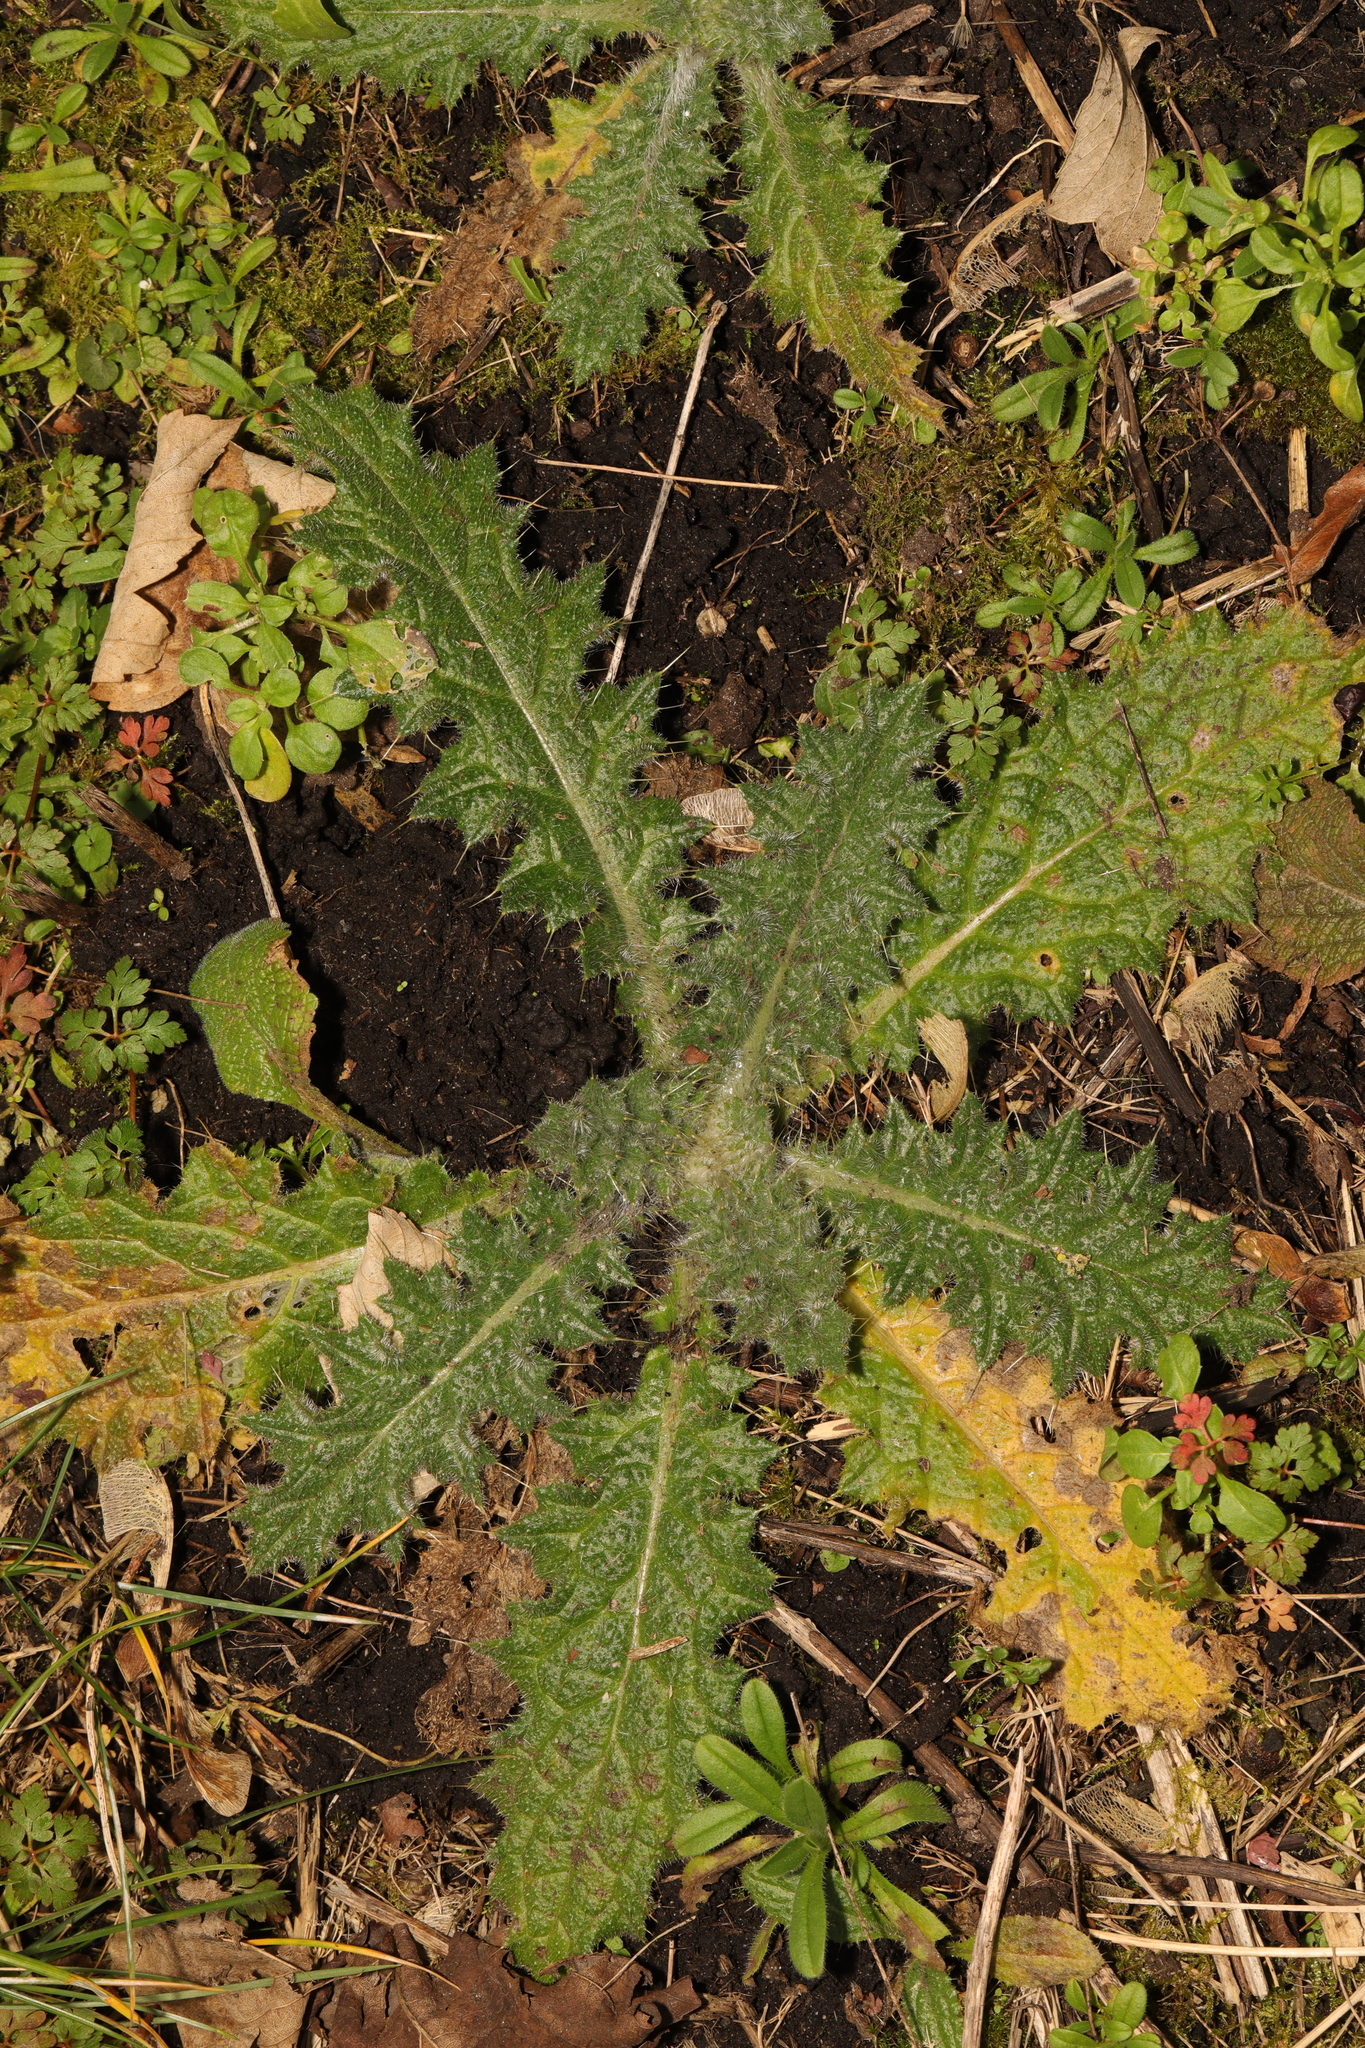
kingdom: Plantae
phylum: Tracheophyta
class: Magnoliopsida
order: Asterales
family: Asteraceae
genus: Cirsium
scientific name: Cirsium vulgare
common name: Bull thistle
